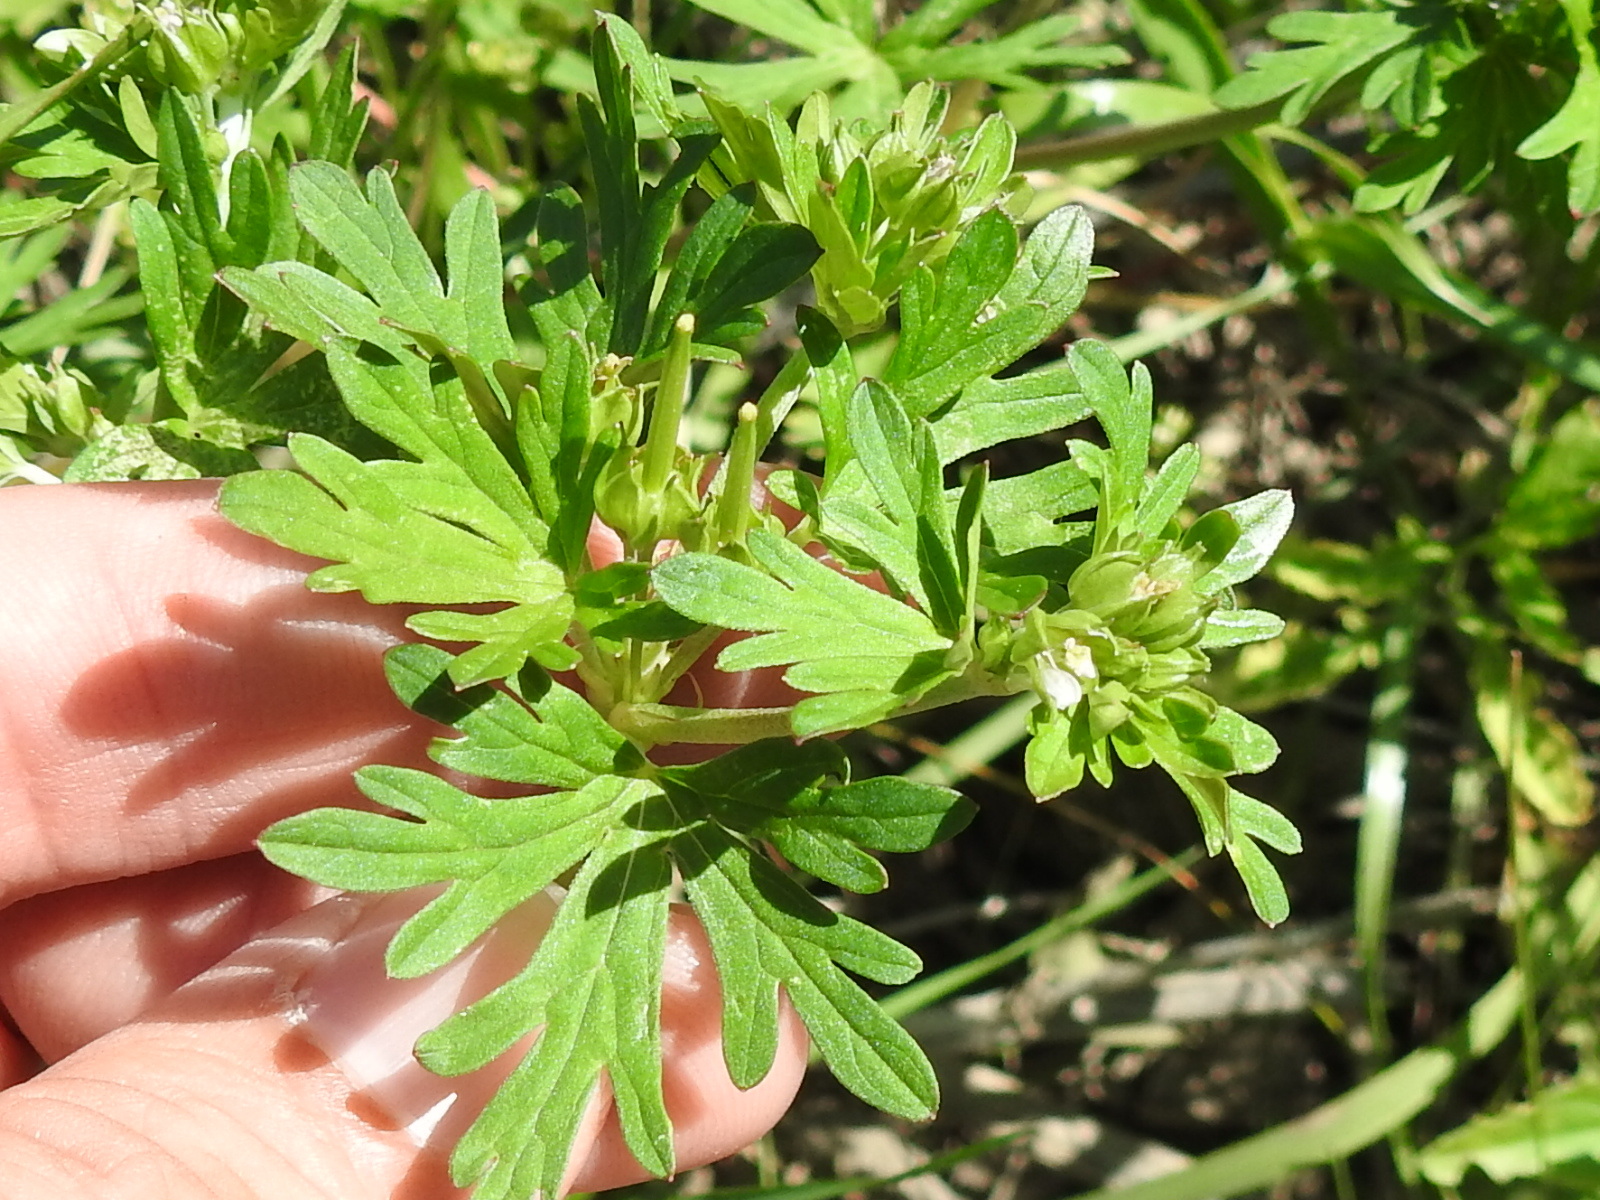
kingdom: Plantae
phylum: Tracheophyta
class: Magnoliopsida
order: Geraniales
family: Geraniaceae
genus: Geranium
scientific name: Geranium carolinianum
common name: Carolina crane's-bill
